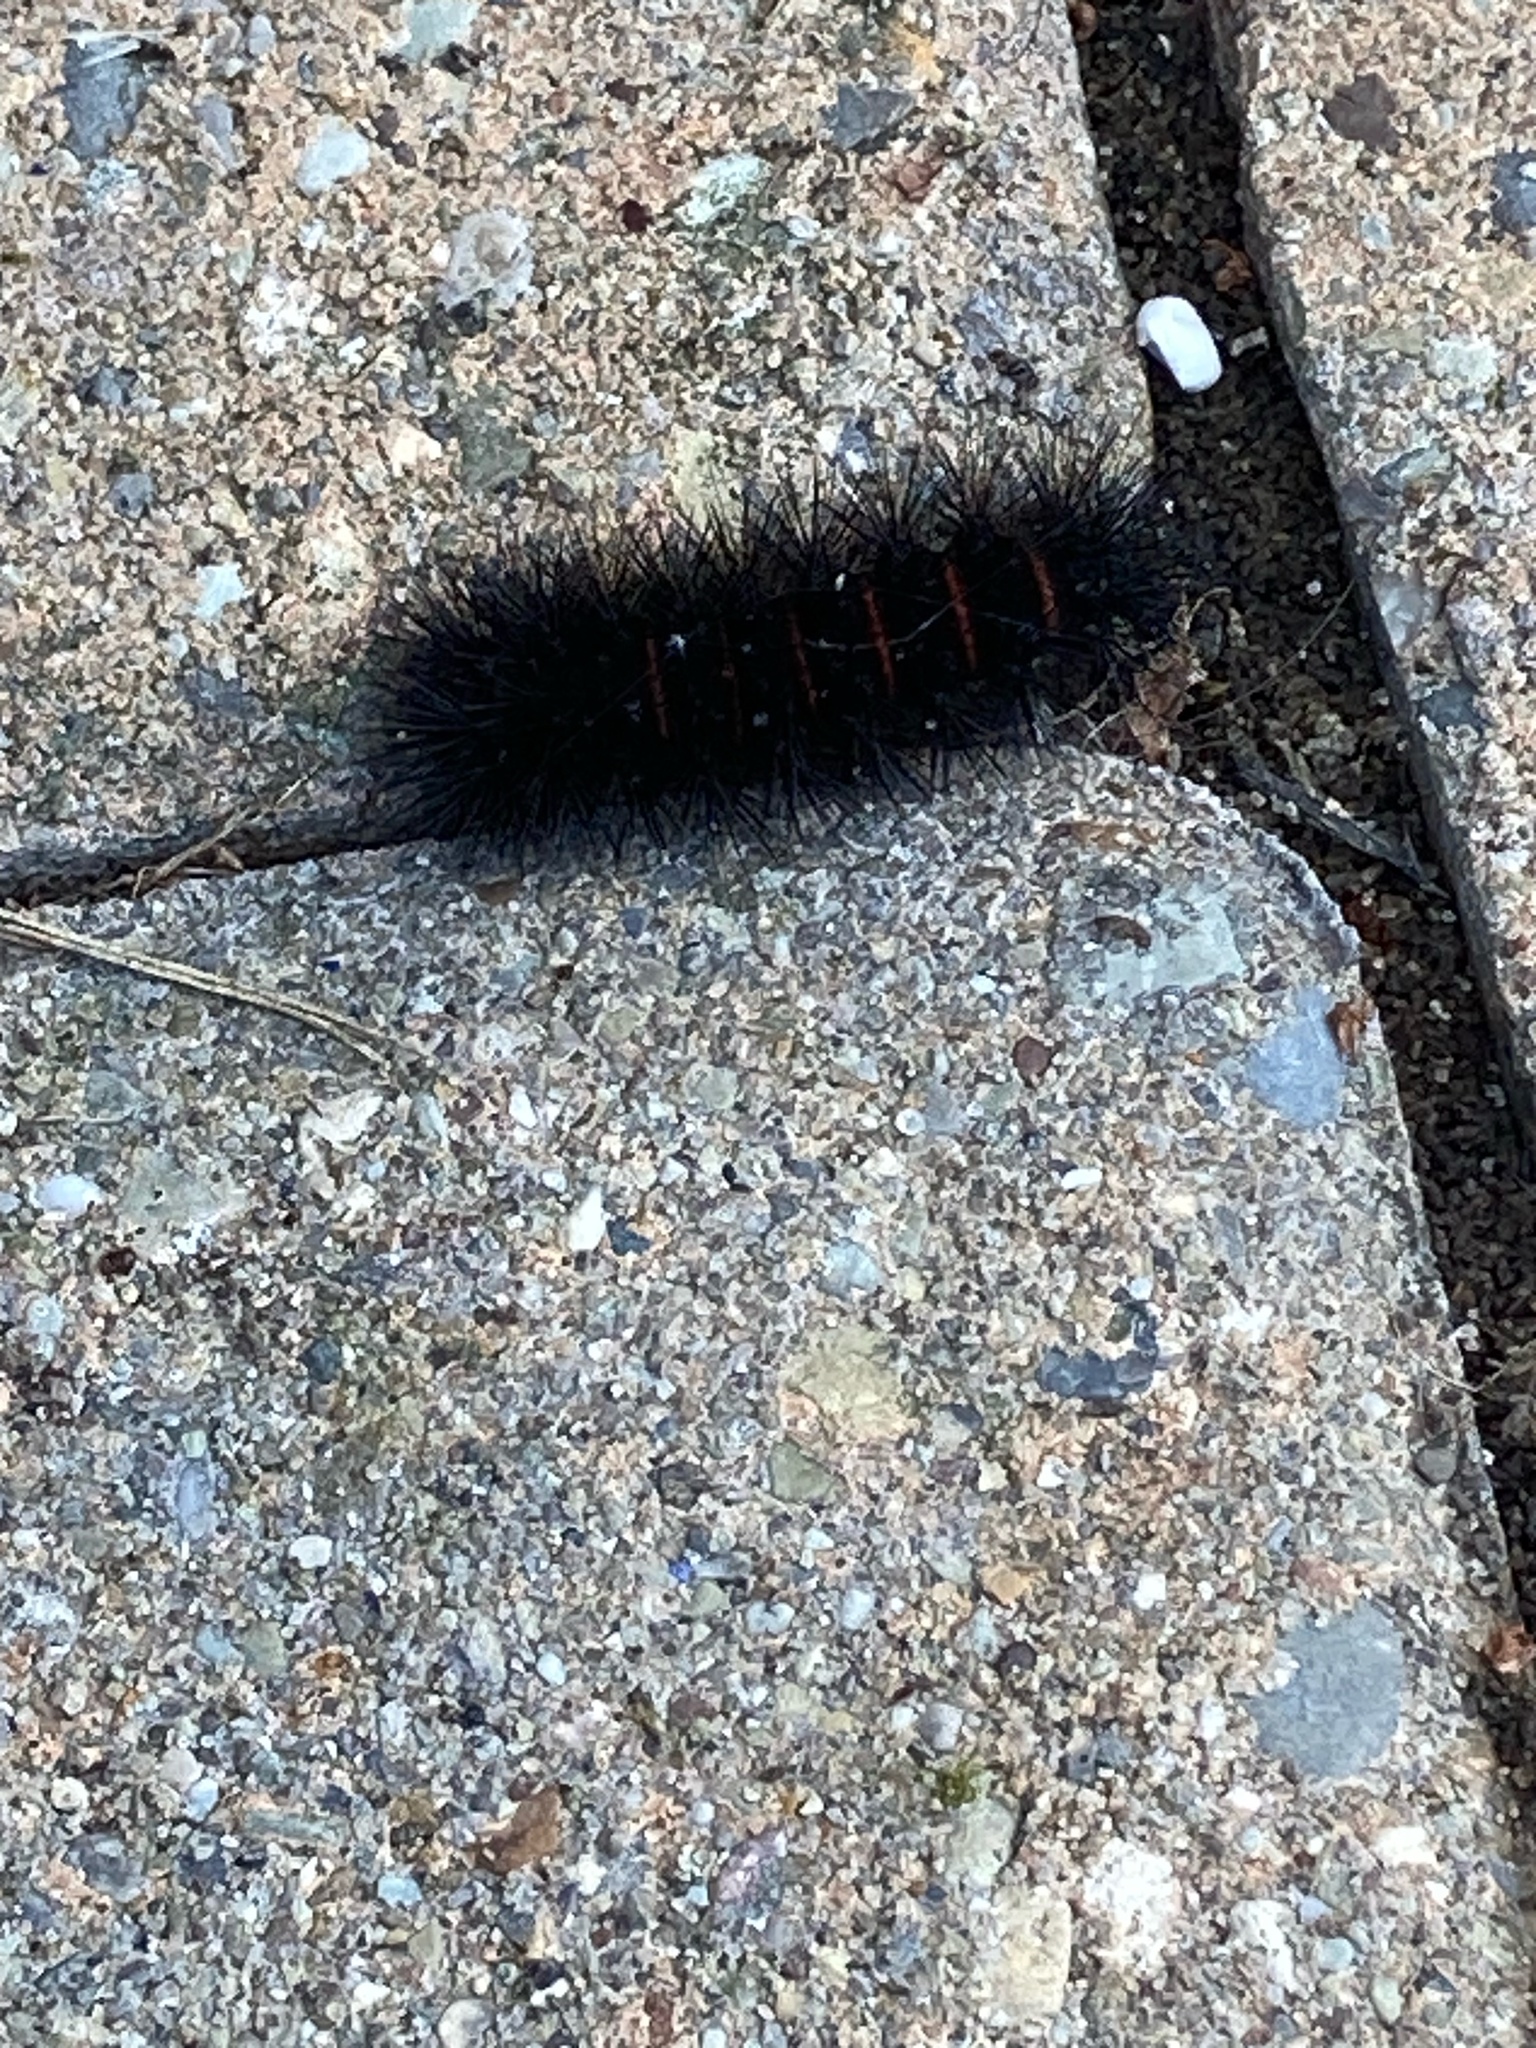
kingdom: Animalia
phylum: Arthropoda
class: Insecta
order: Lepidoptera
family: Erebidae
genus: Hypercompe
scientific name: Hypercompe scribonia
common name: Giant leopard moth
